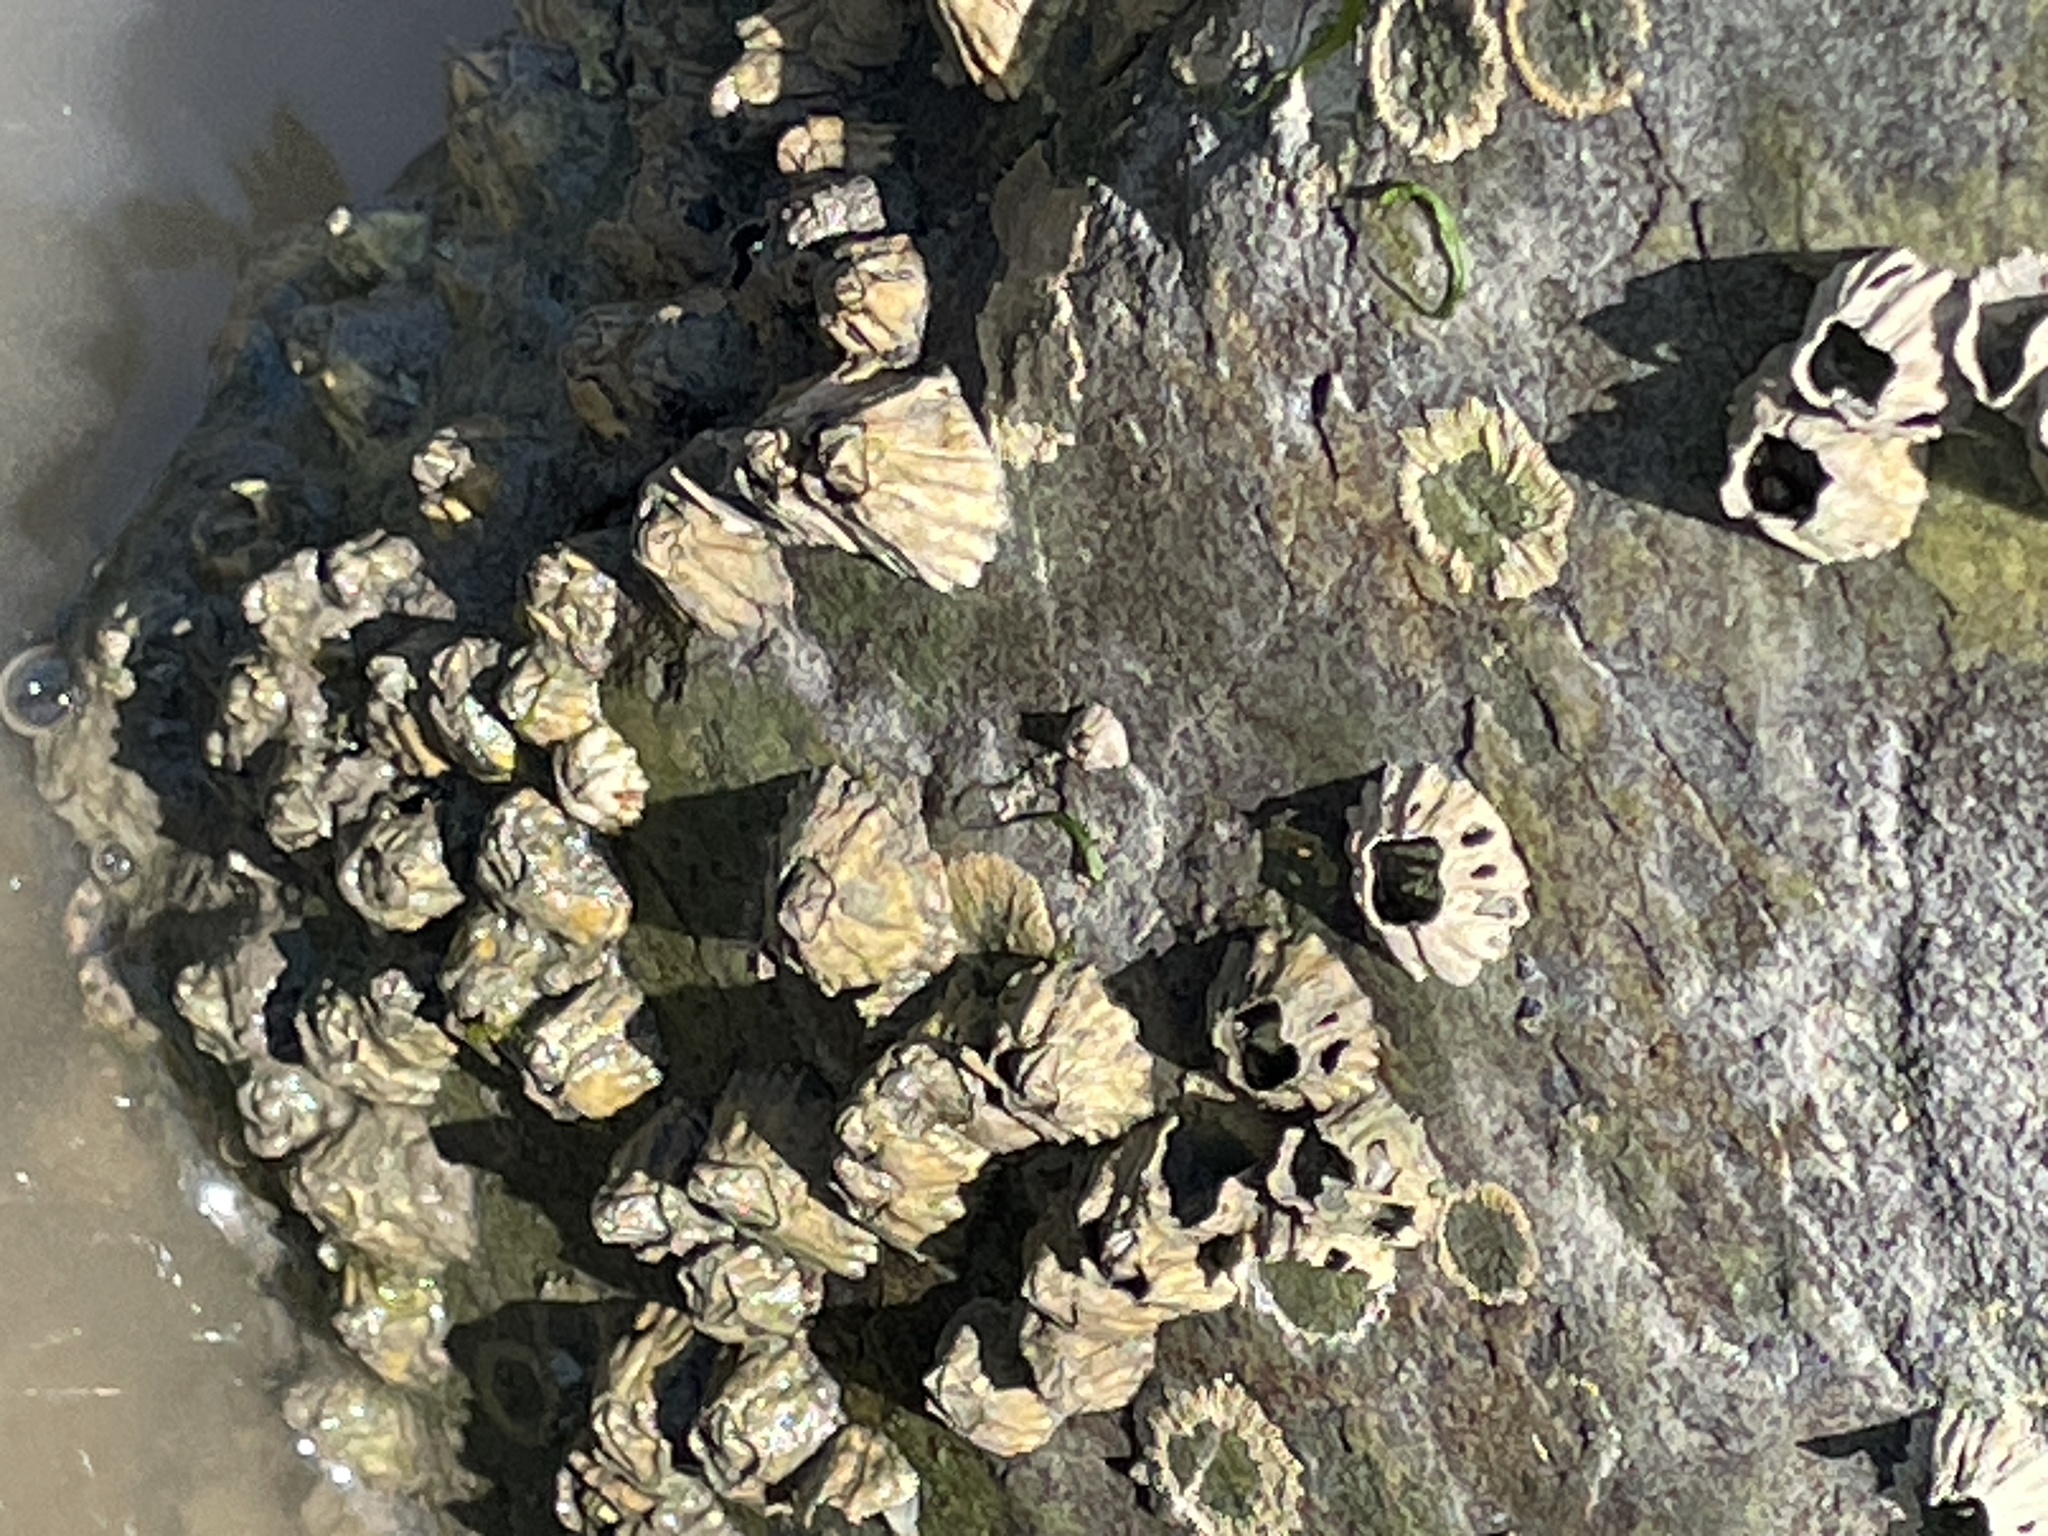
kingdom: Animalia
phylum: Arthropoda
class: Maxillopoda
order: Sessilia
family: Balanidae
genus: Balanus
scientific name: Balanus glandula
